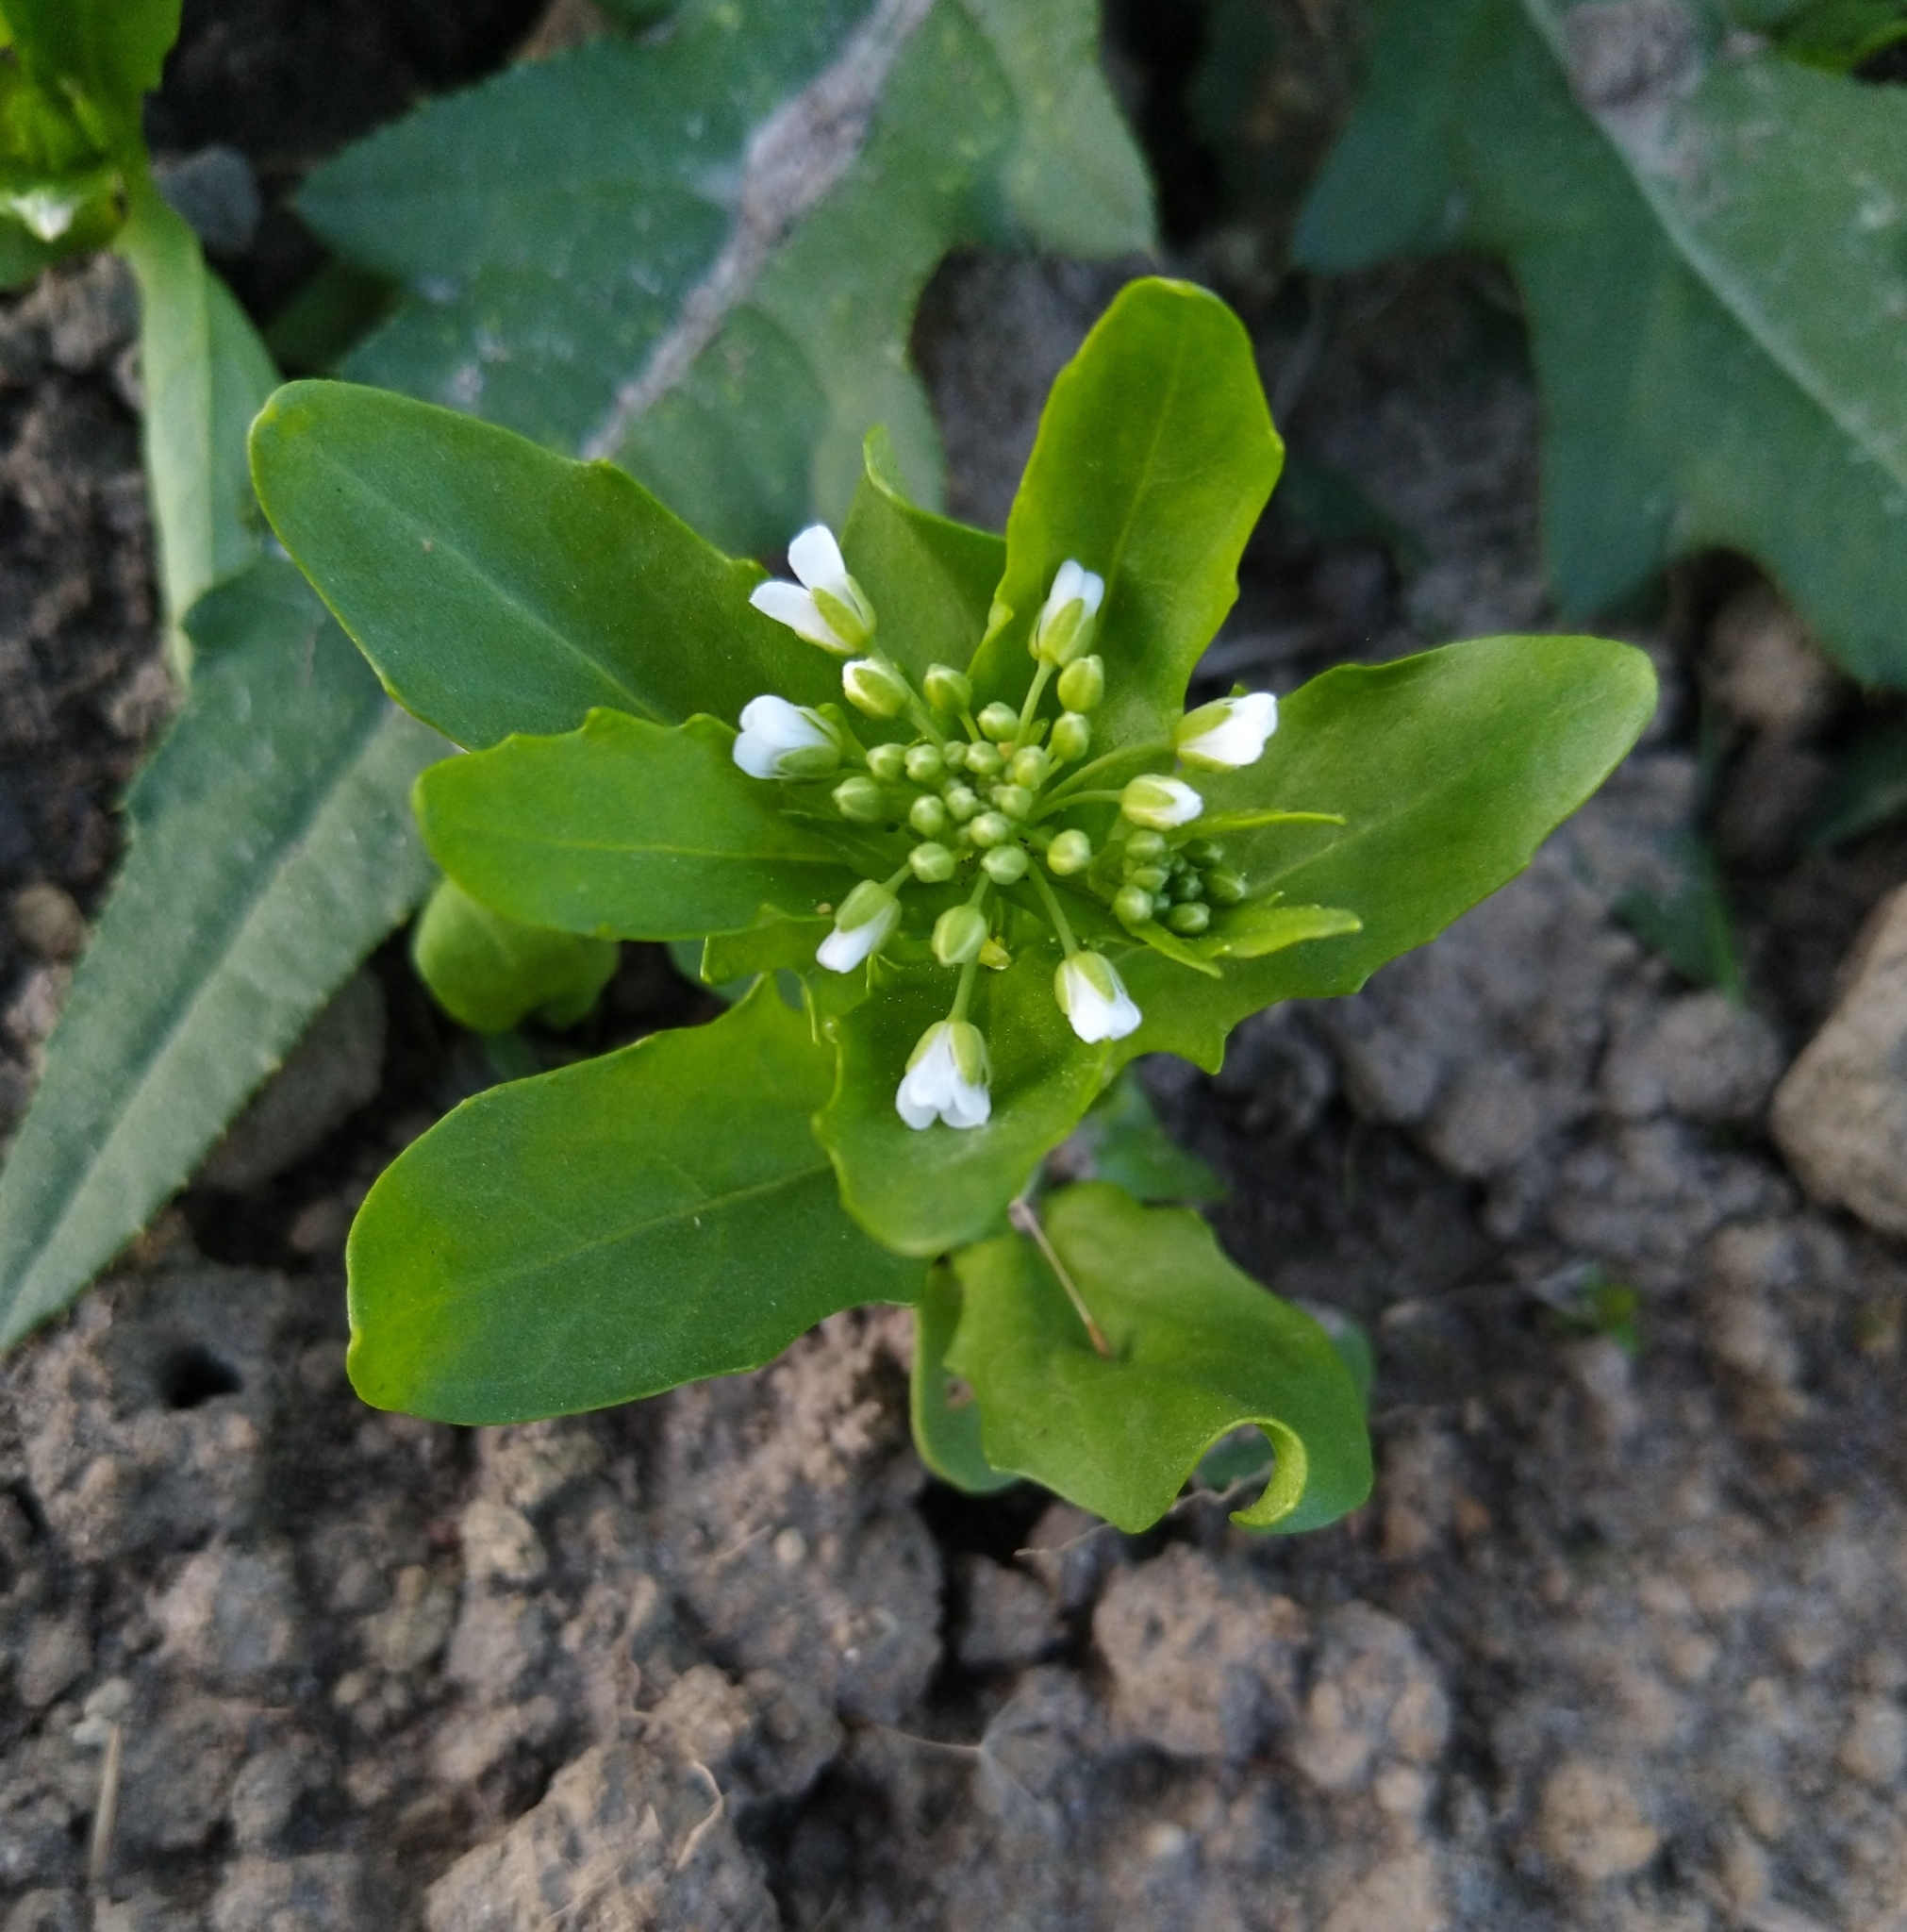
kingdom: Plantae
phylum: Tracheophyta
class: Magnoliopsida
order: Brassicales
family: Brassicaceae
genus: Thlaspi
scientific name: Thlaspi arvense
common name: Field pennycress
